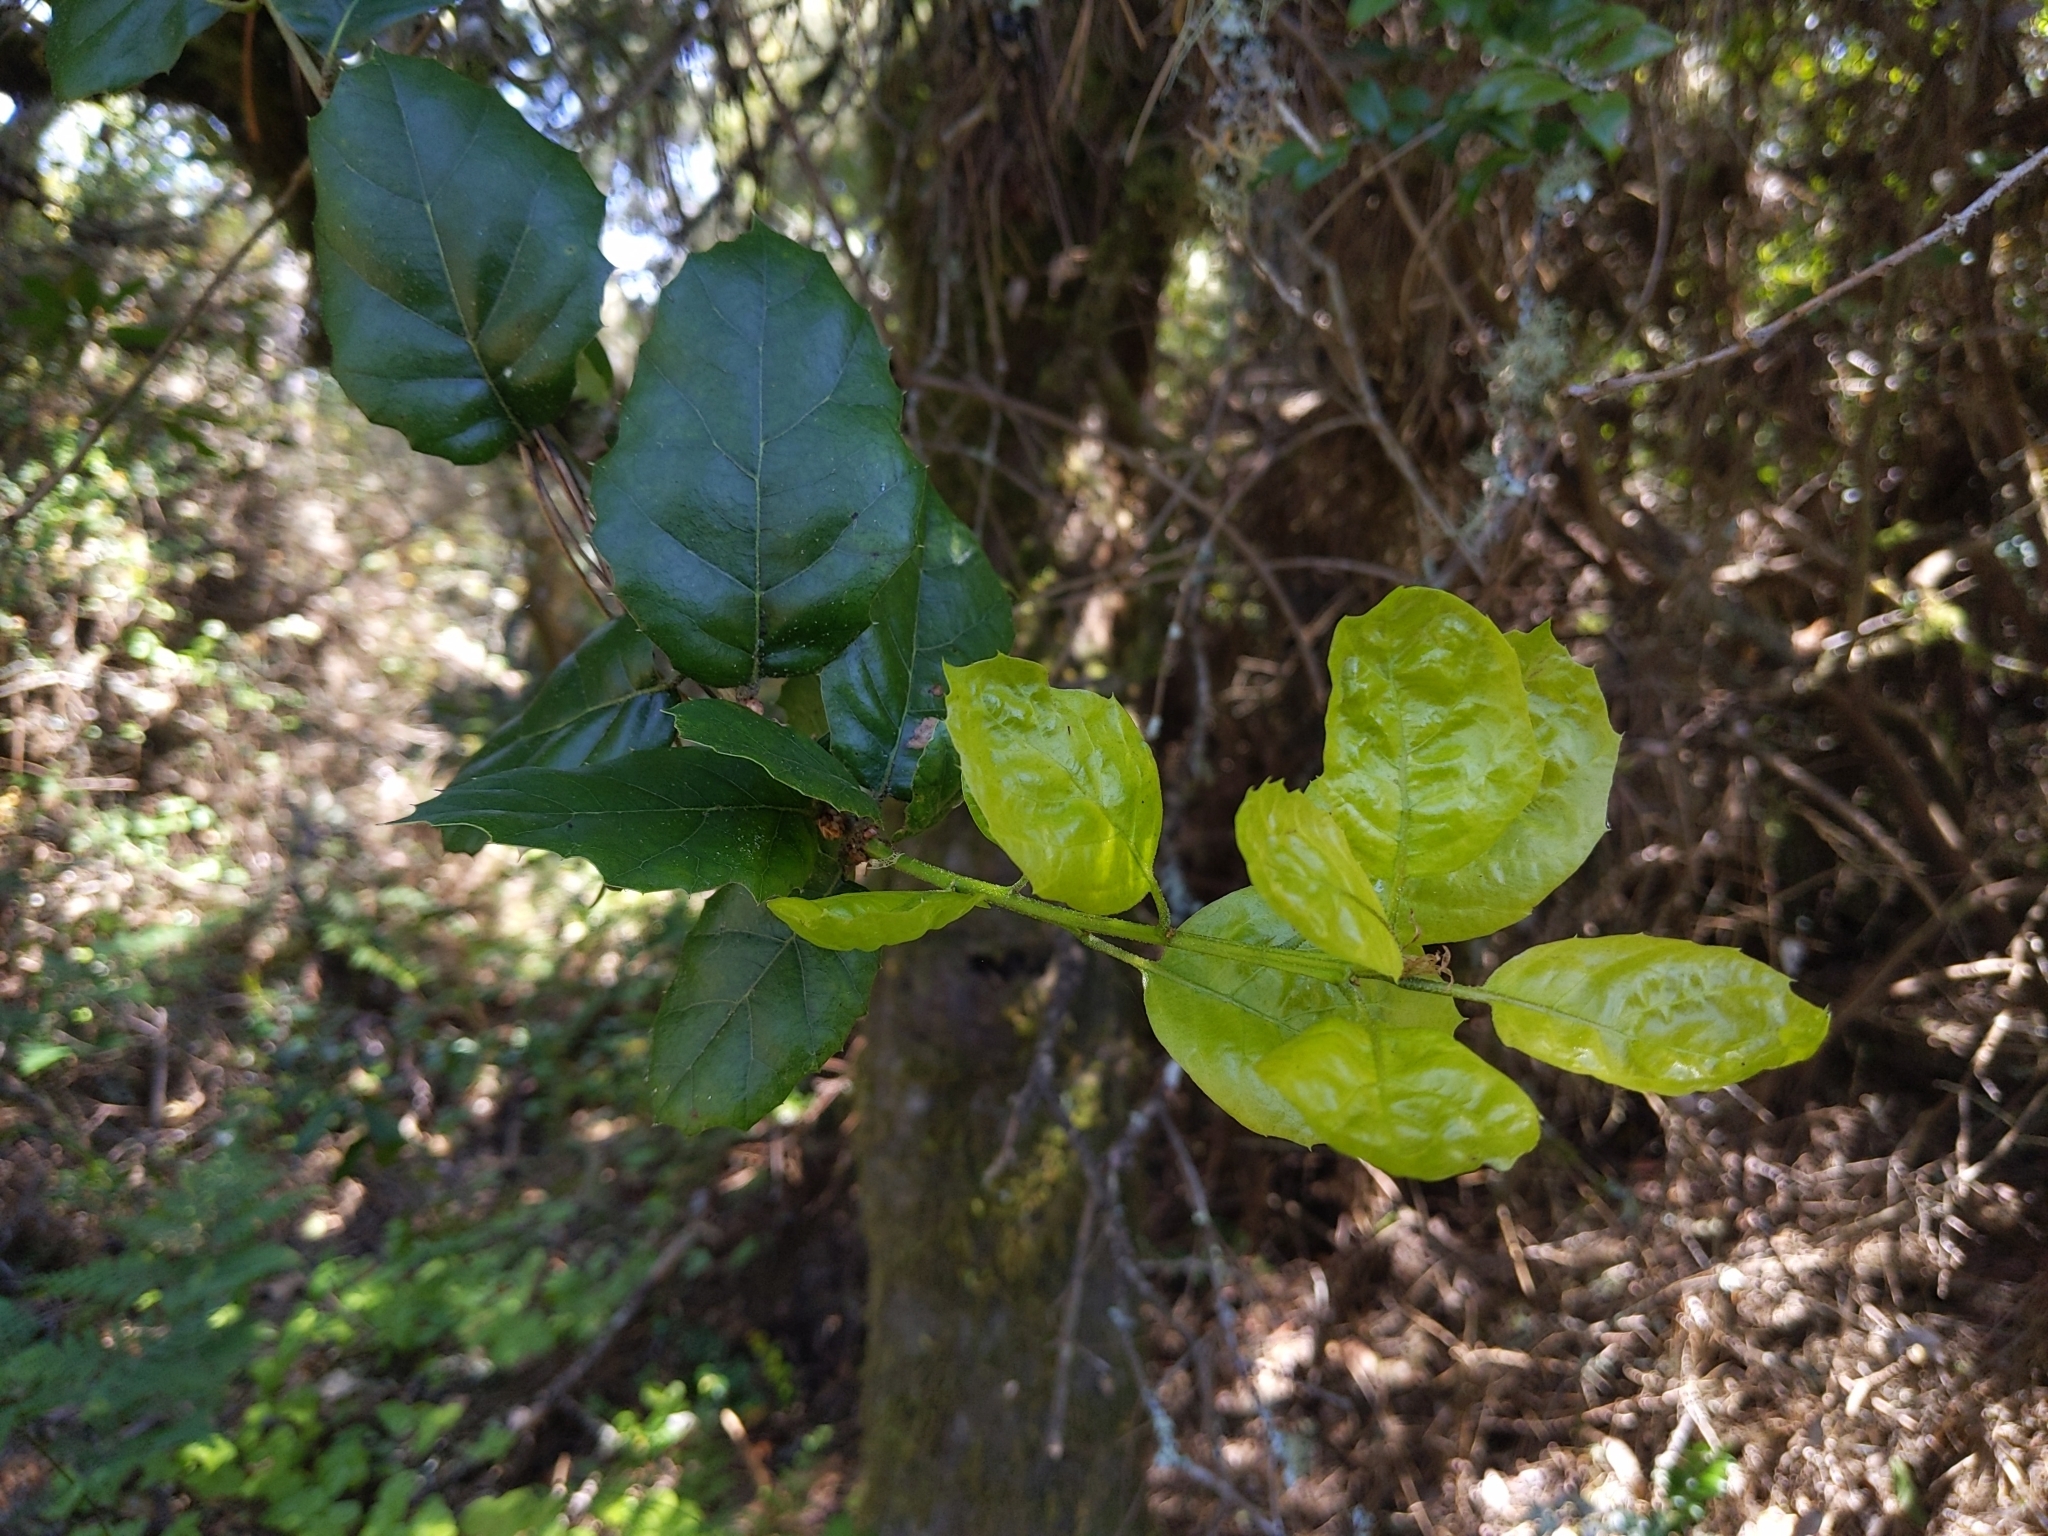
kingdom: Plantae
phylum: Tracheophyta
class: Magnoliopsida
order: Fagales
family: Fagaceae
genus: Quercus
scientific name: Quercus agrifolia
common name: California live oak
